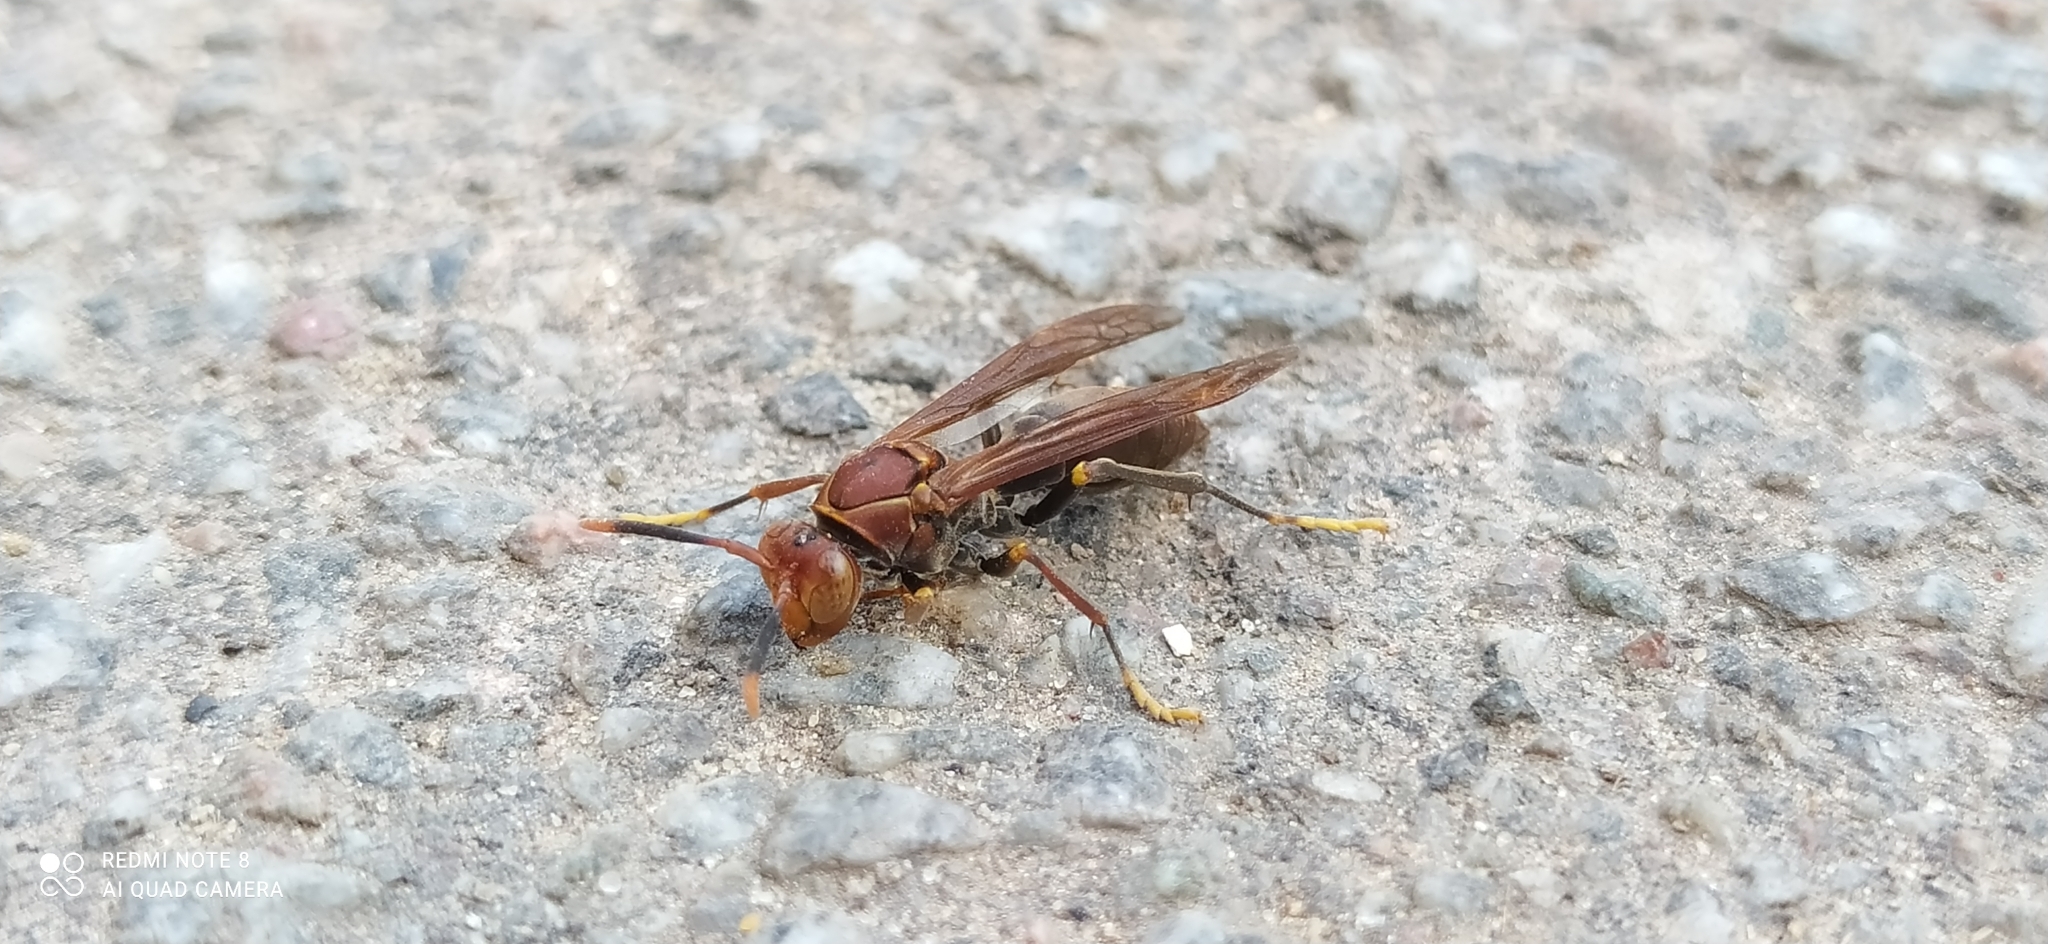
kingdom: Animalia
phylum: Arthropoda
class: Insecta
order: Hymenoptera
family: Pompilidae
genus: Aphanilopterus
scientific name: Aphanilopterus
